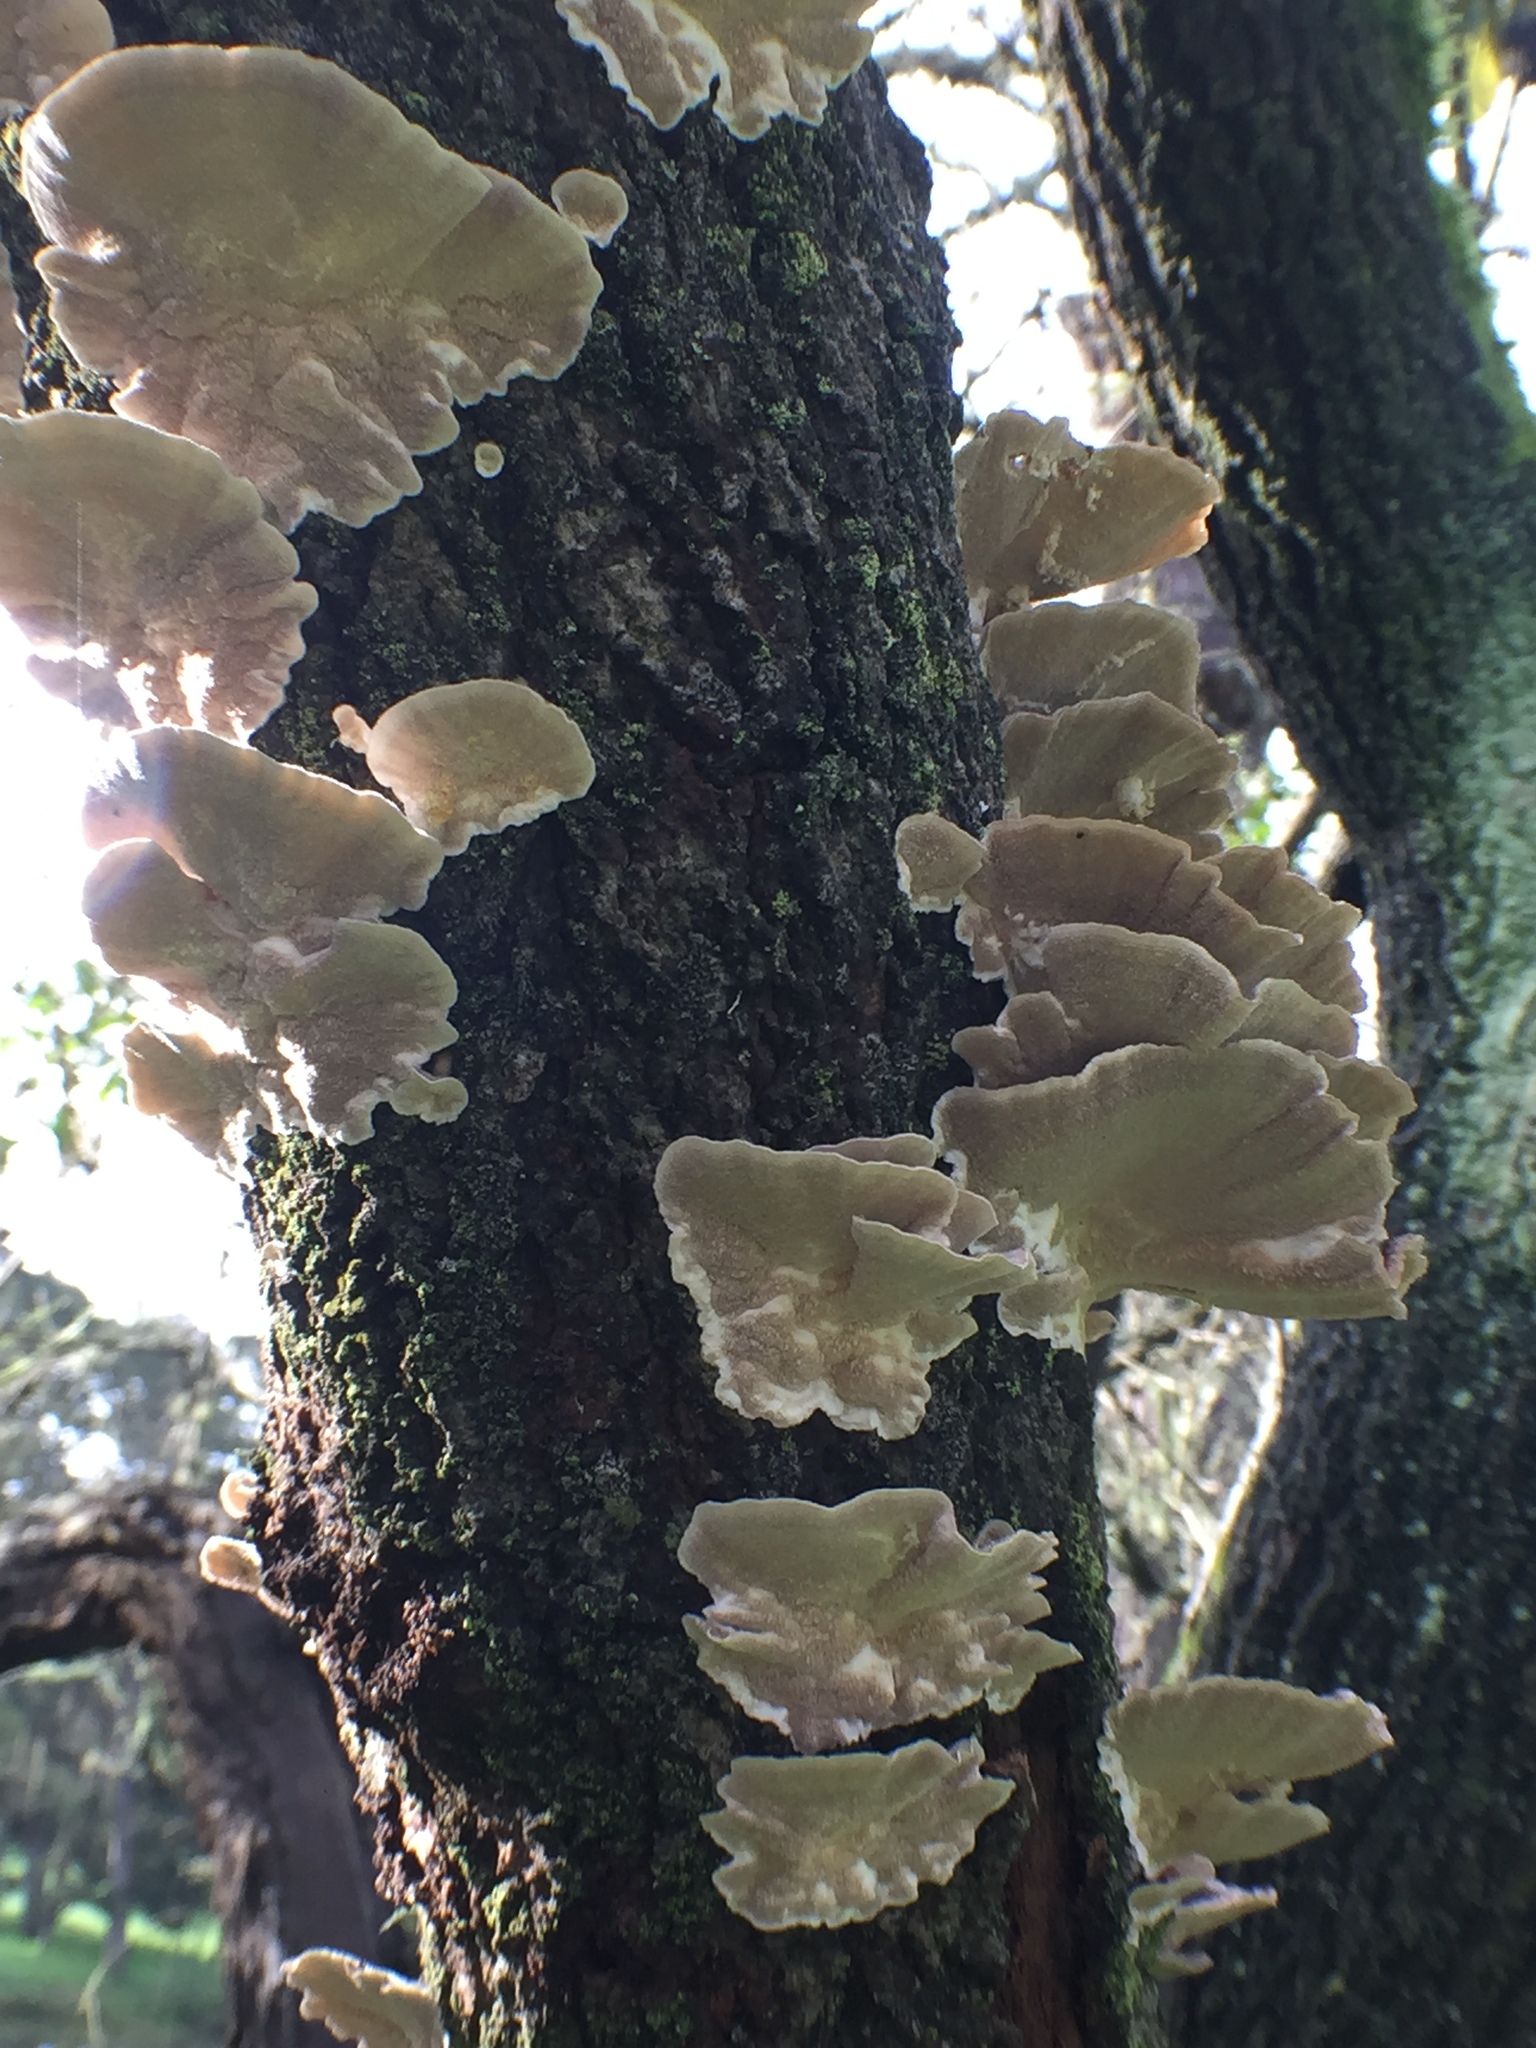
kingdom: Fungi
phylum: Basidiomycota
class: Agaricomycetes
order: Polyporales
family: Polyporaceae
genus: Trametes
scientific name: Trametes versicolor
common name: Turkeytail
